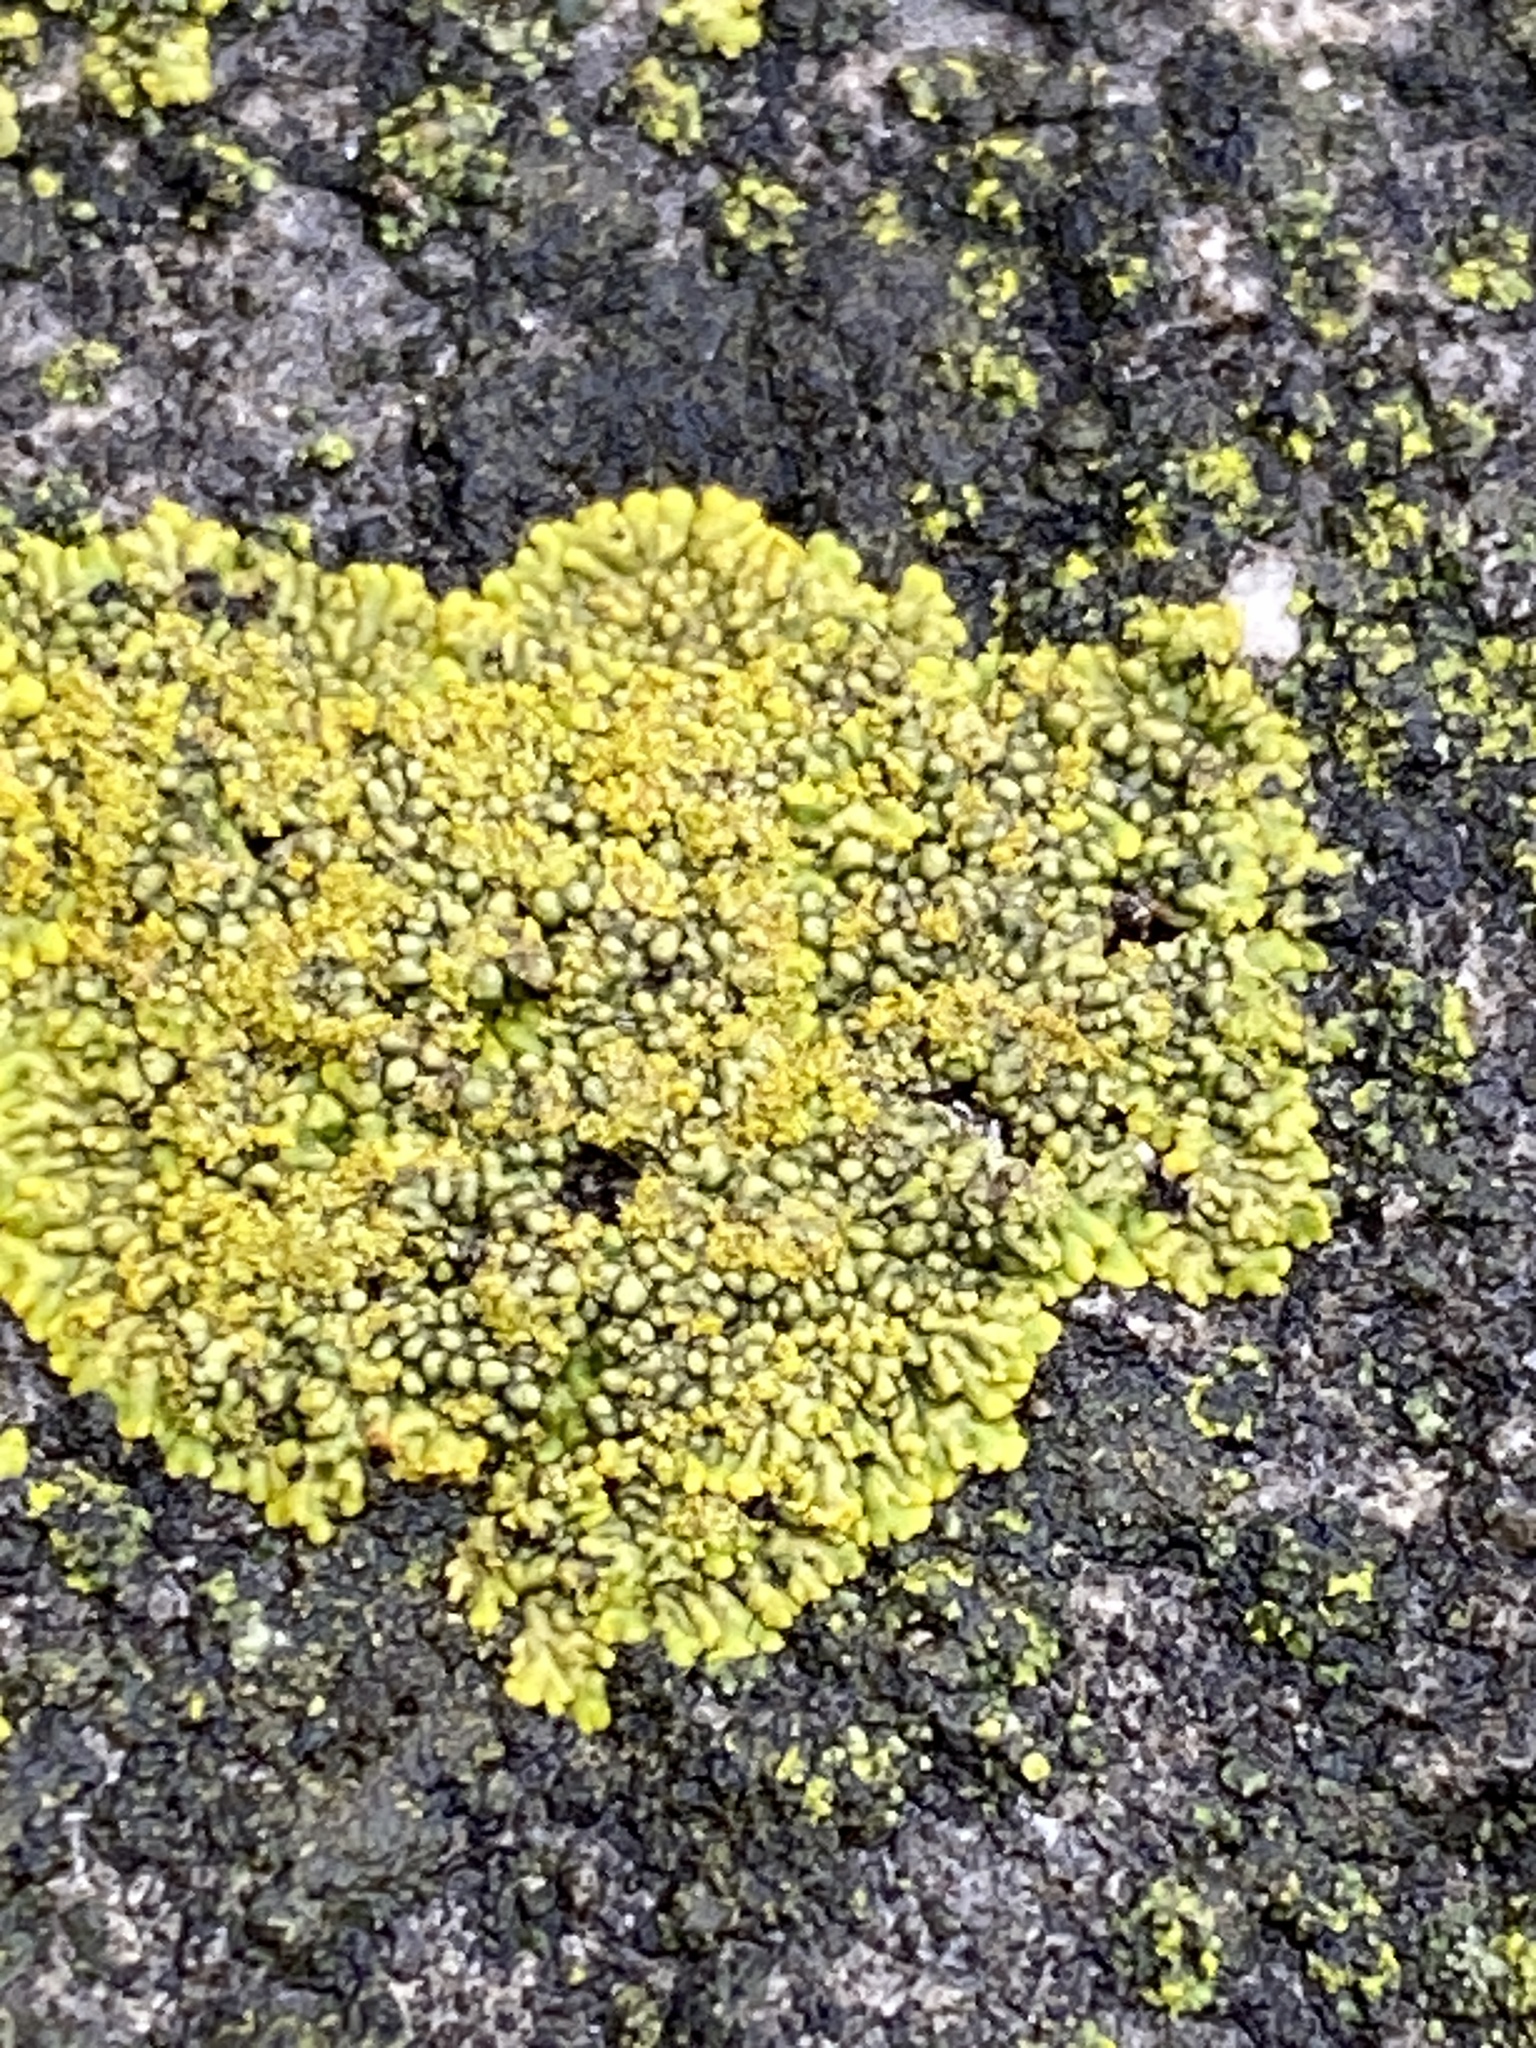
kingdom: Fungi
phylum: Ascomycota
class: Lecanoromycetes
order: Teloschistales
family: Teloschistaceae
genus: Calogaya
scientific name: Calogaya decipiens
